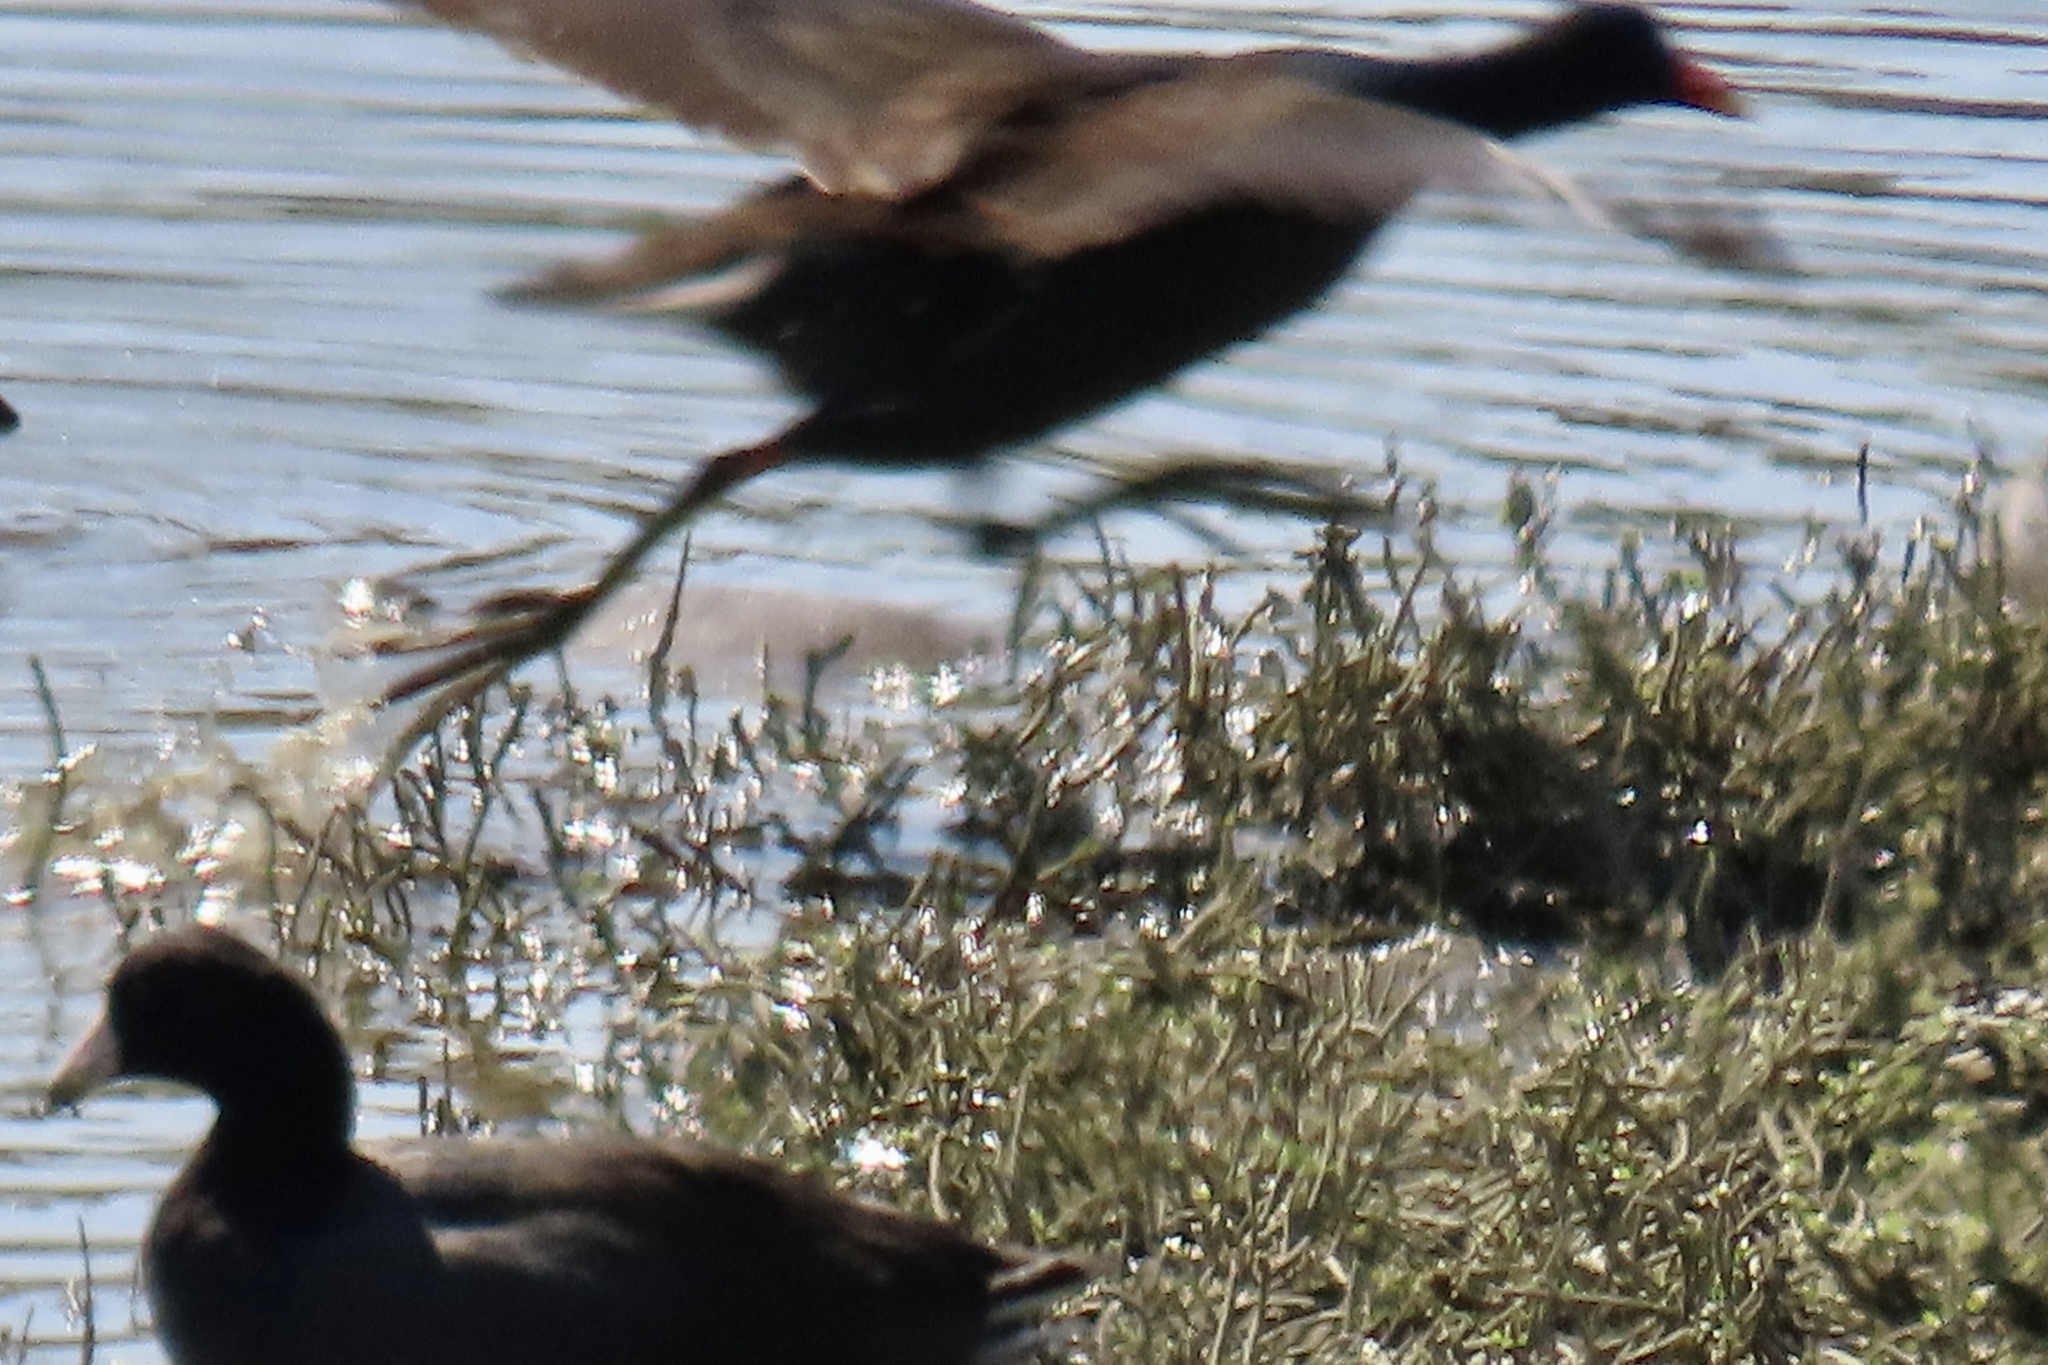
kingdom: Animalia
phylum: Chordata
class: Aves
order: Gruiformes
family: Rallidae
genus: Gallinula
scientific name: Gallinula chloropus
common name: Common moorhen
